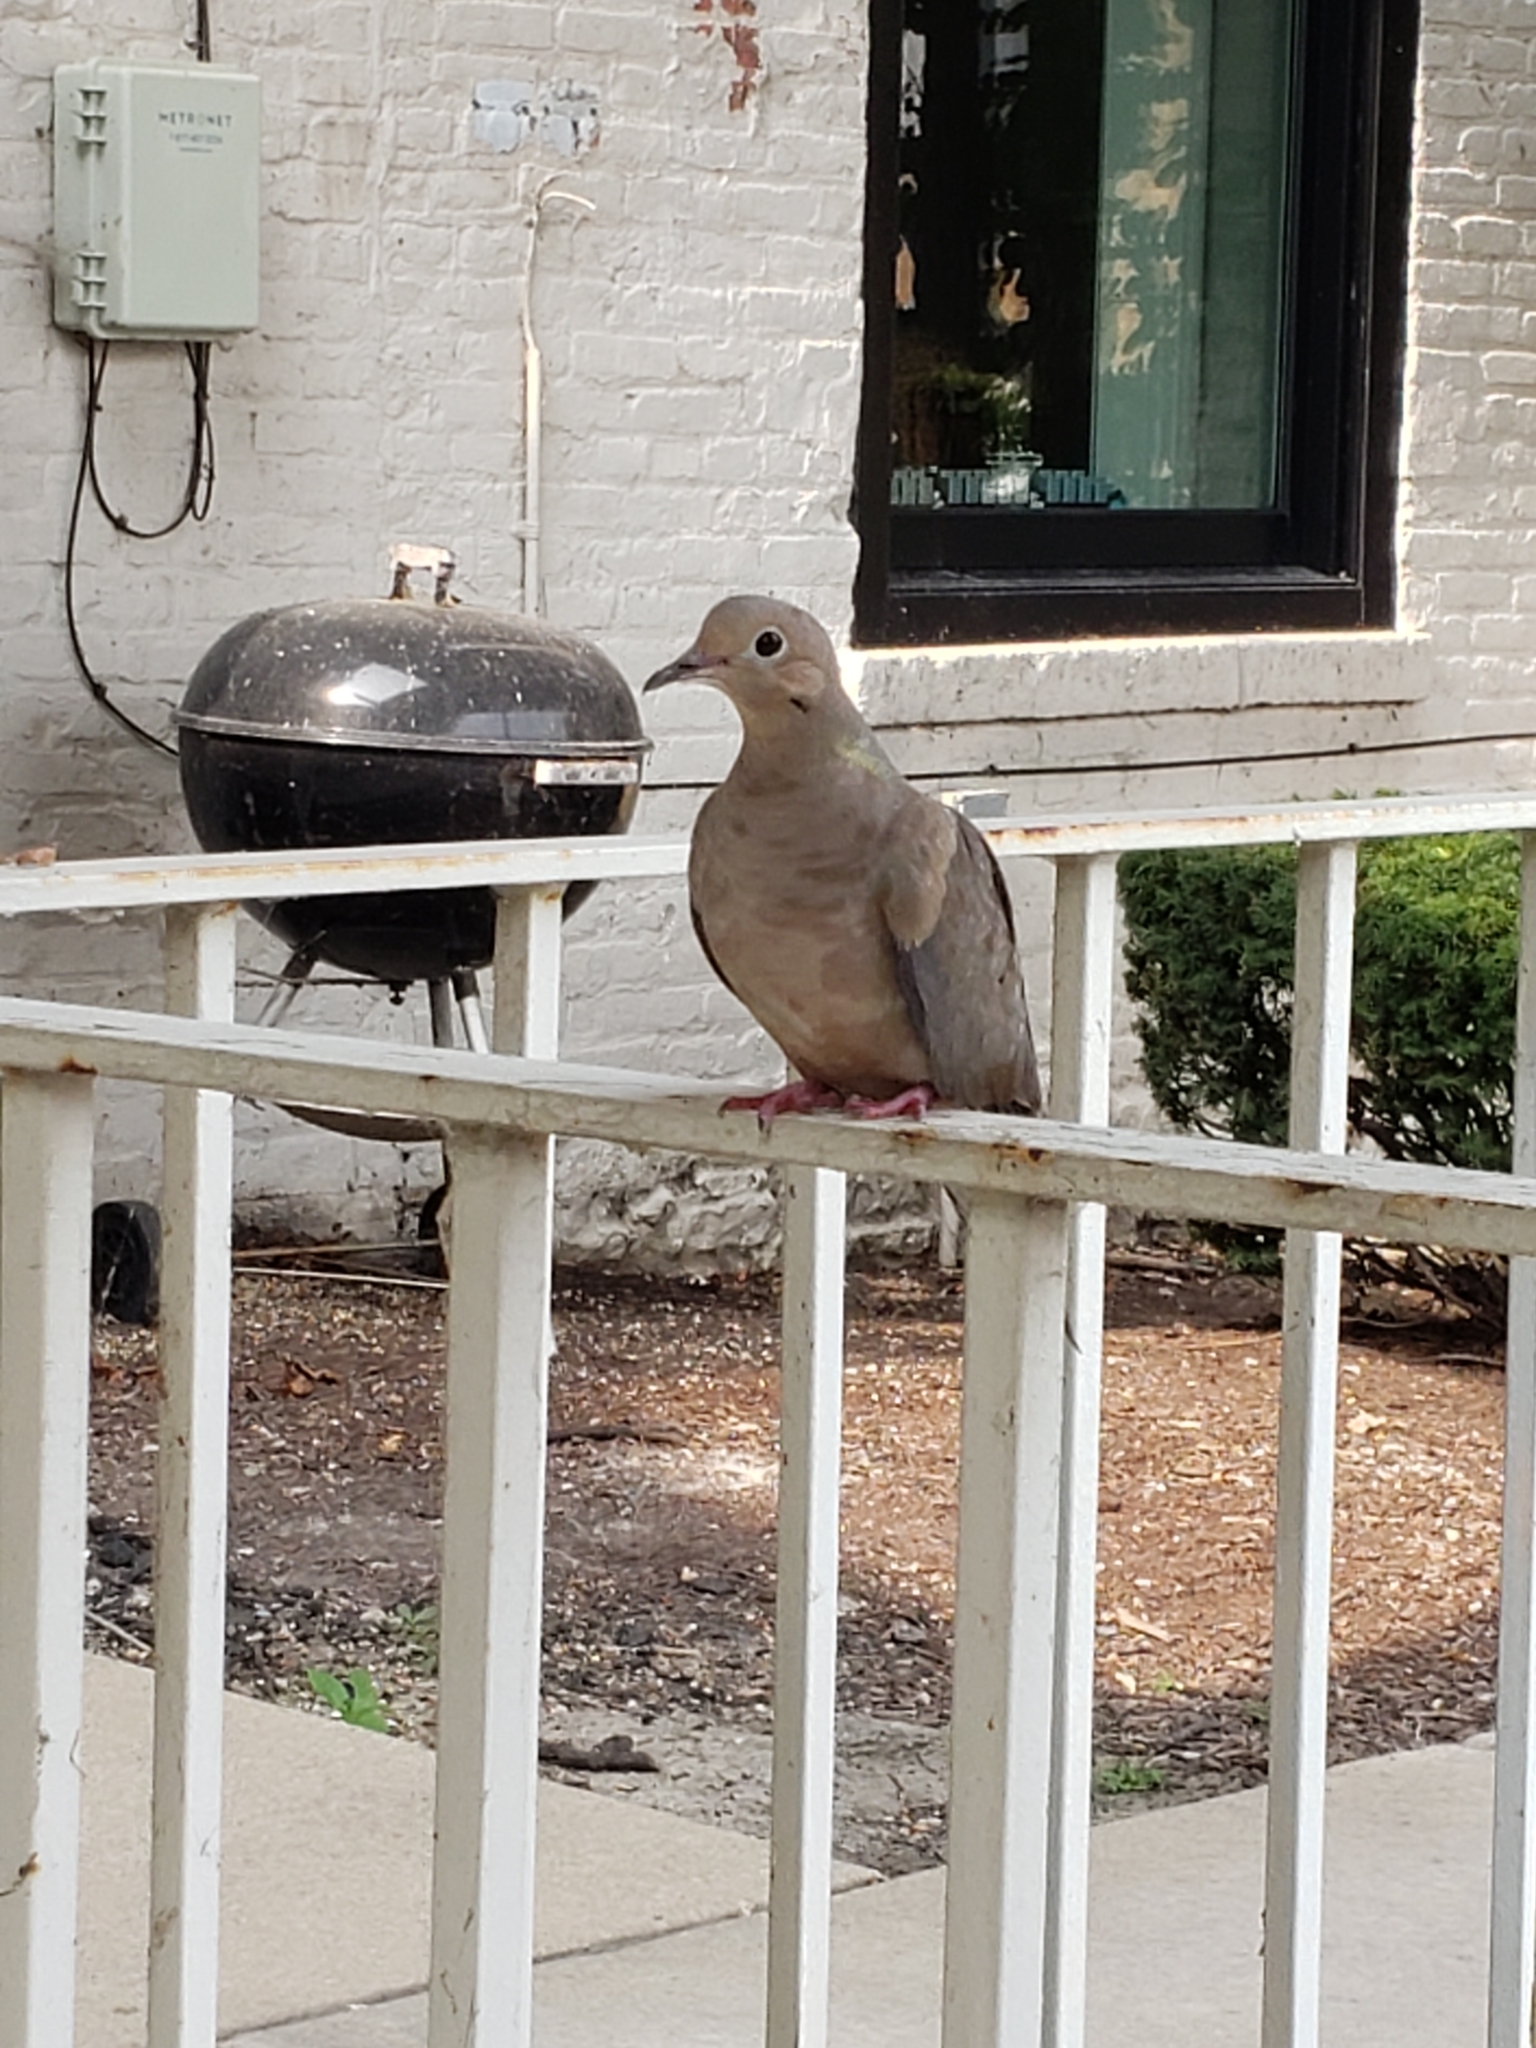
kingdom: Animalia
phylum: Chordata
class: Aves
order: Columbiformes
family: Columbidae
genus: Zenaida
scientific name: Zenaida macroura
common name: Mourning dove
